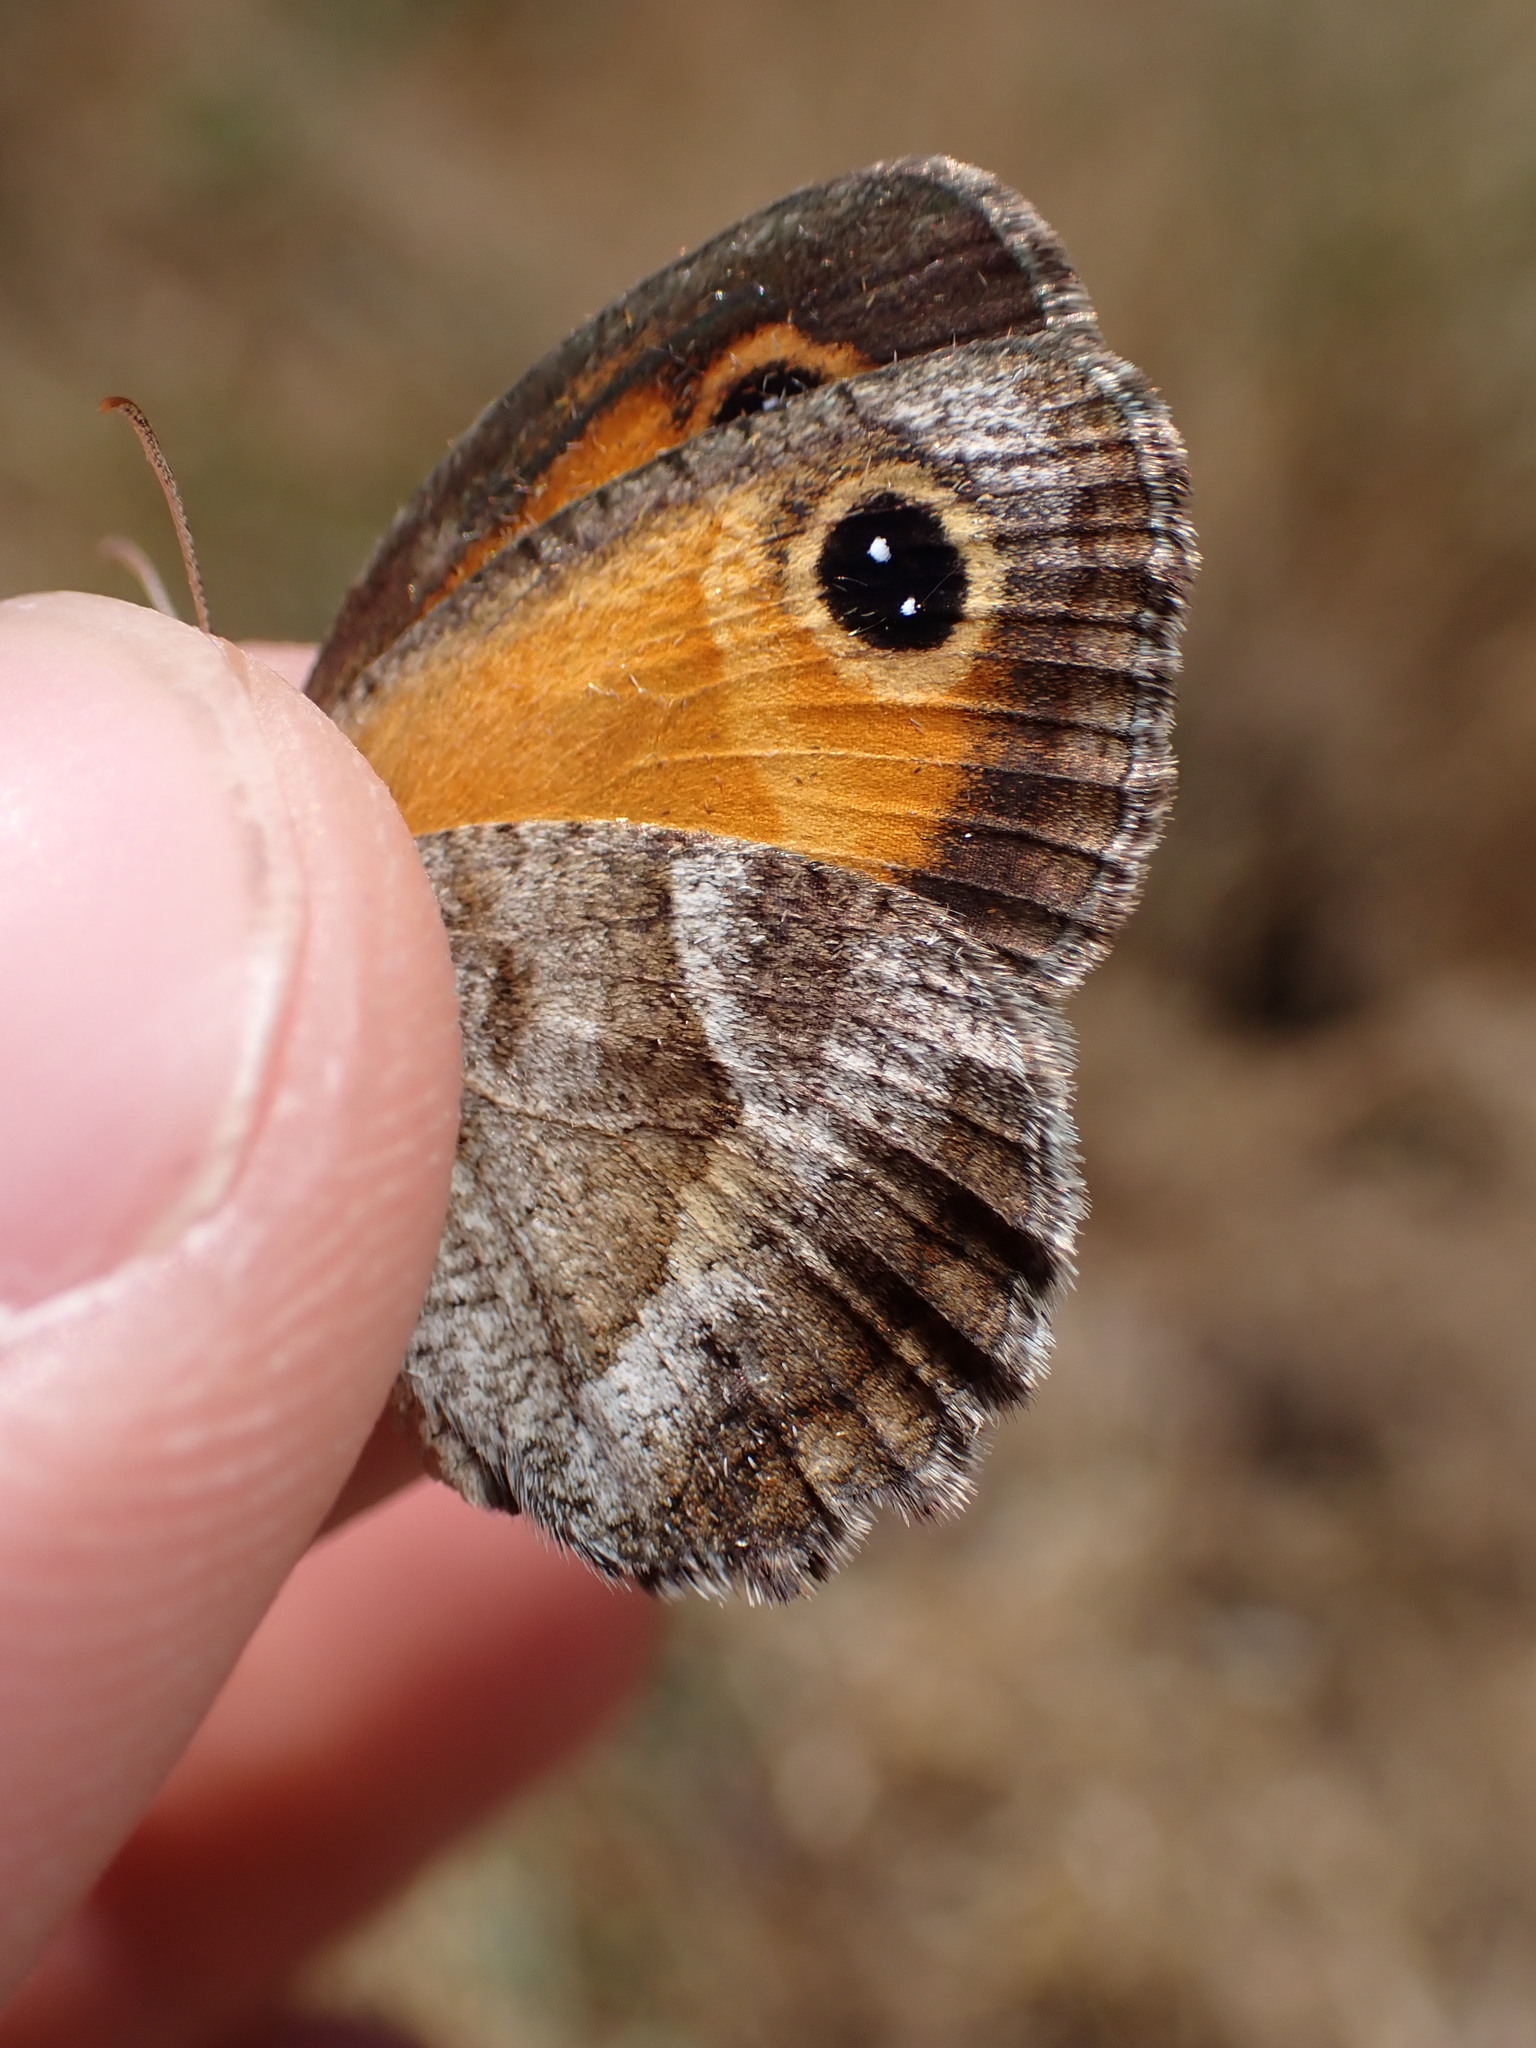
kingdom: Animalia
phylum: Arthropoda
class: Insecta
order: Lepidoptera
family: Nymphalidae
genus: Pyronia
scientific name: Pyronia cecilia
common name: Southern gatekeeper
